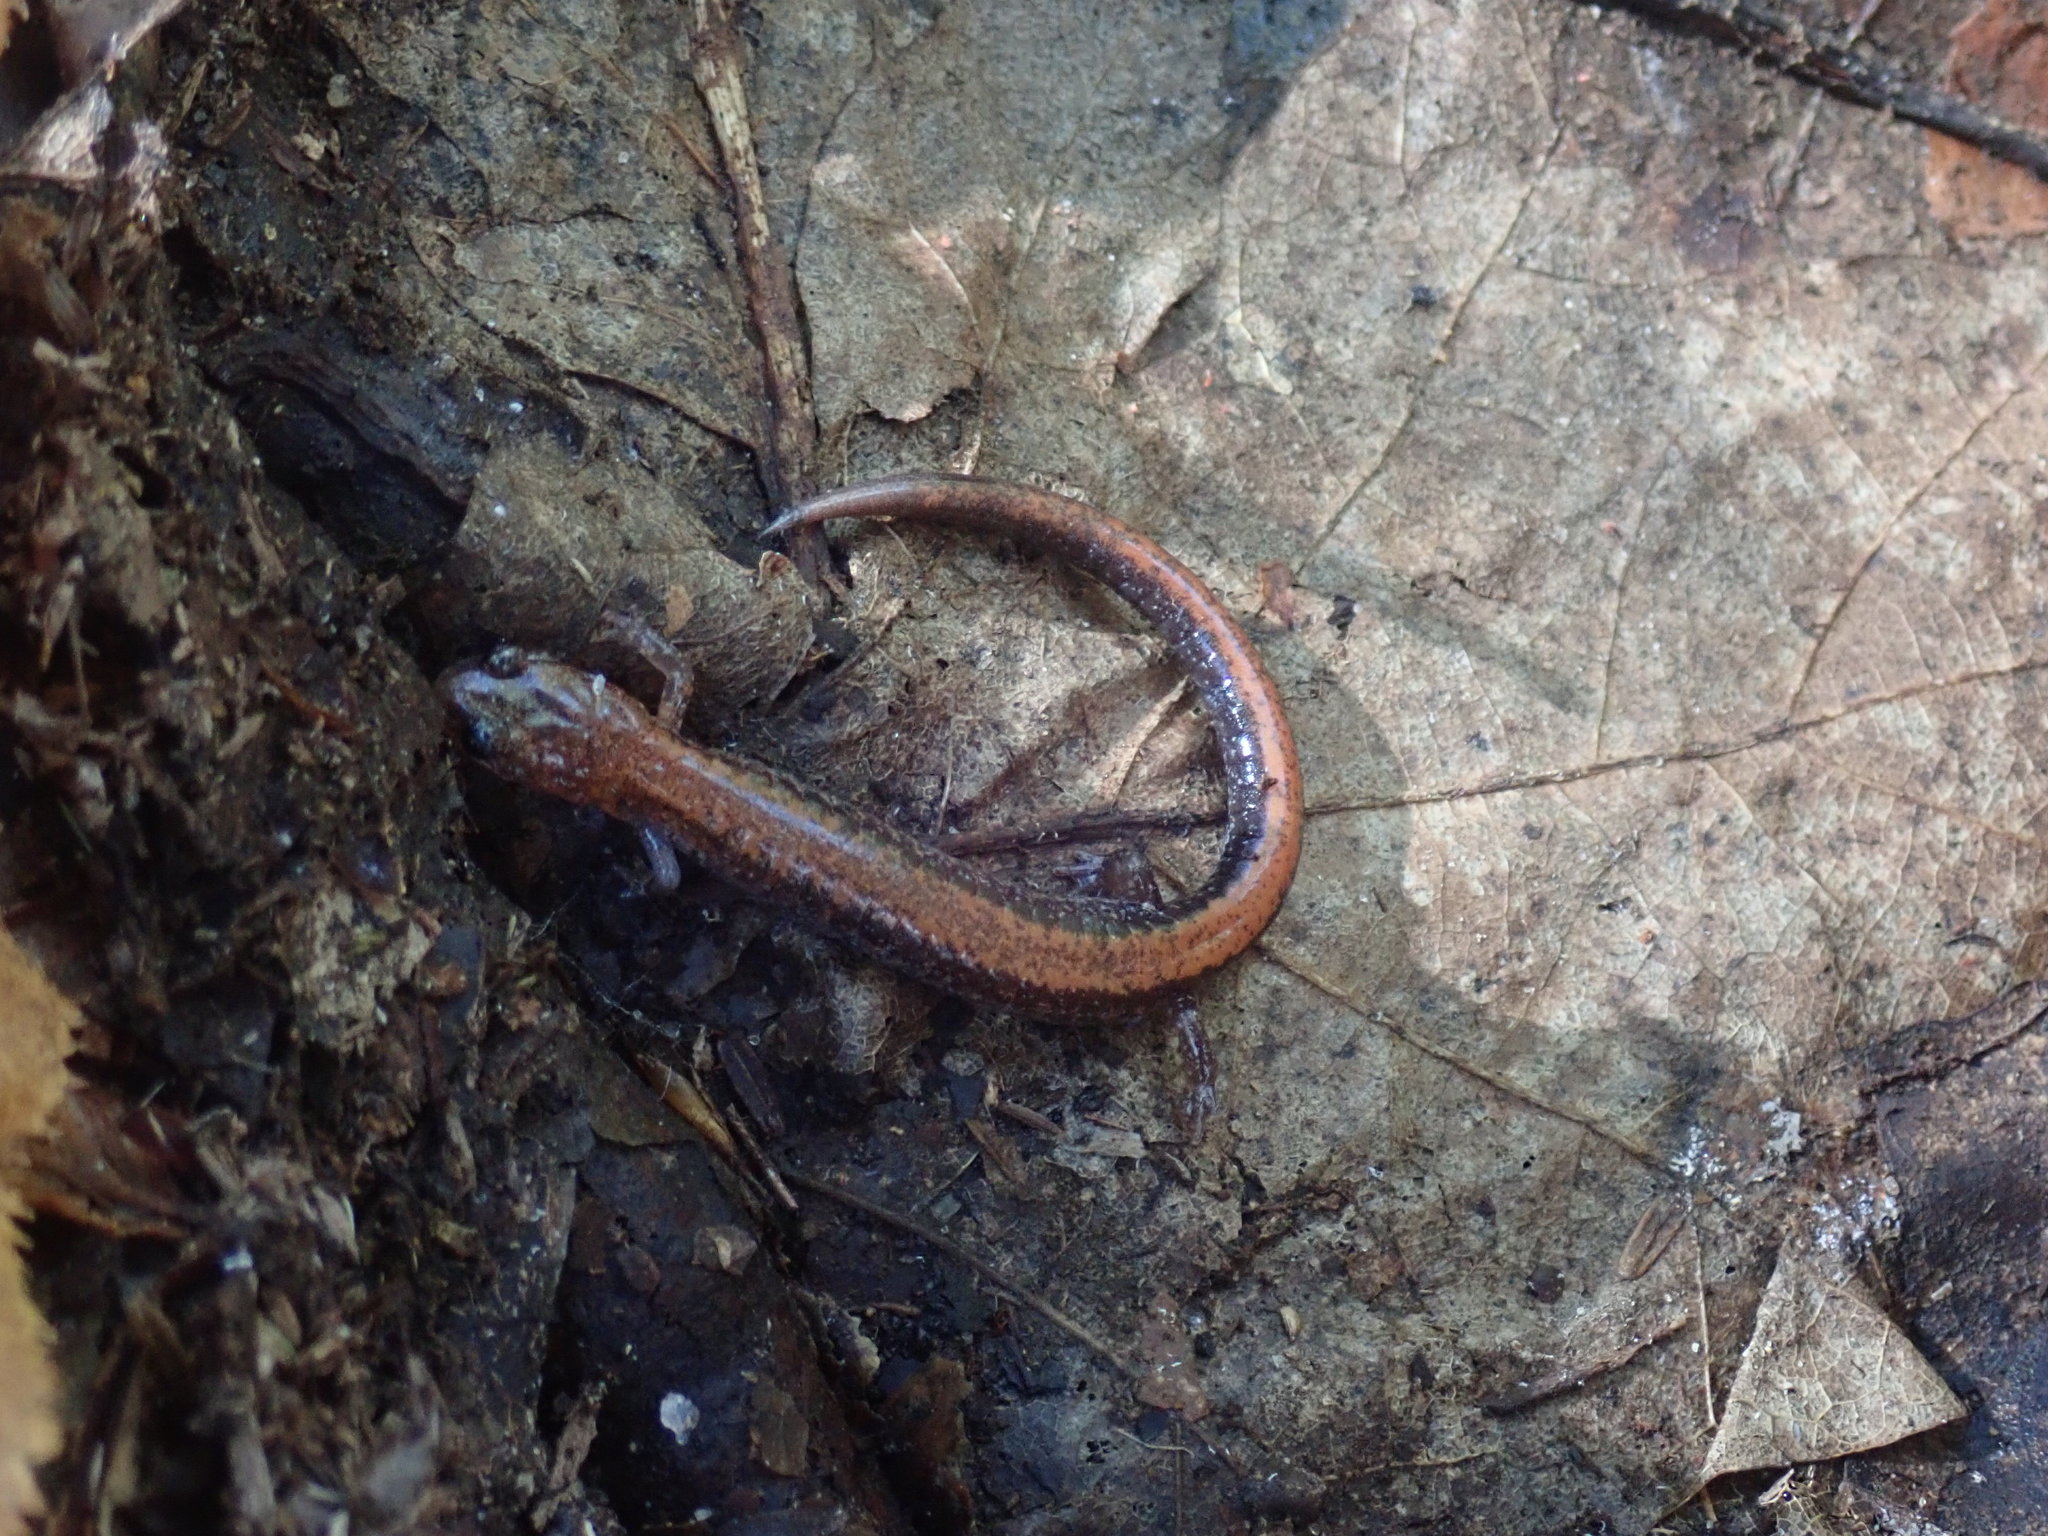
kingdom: Animalia
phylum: Chordata
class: Amphibia
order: Caudata
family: Plethodontidae
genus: Plethodon
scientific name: Plethodon cinereus
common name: Redback salamander
